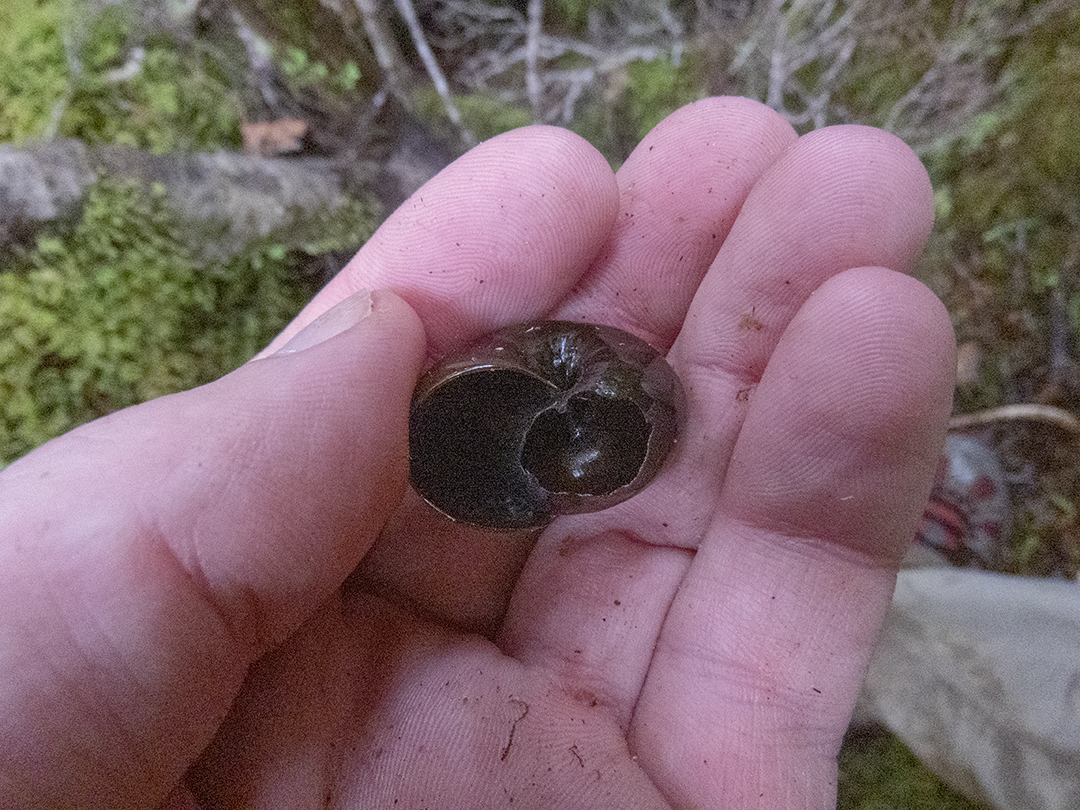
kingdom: Animalia
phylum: Mollusca
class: Gastropoda
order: Stylommatophora
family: Rhytididae
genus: Powelliphanta
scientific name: Powelliphanta patrickensis
